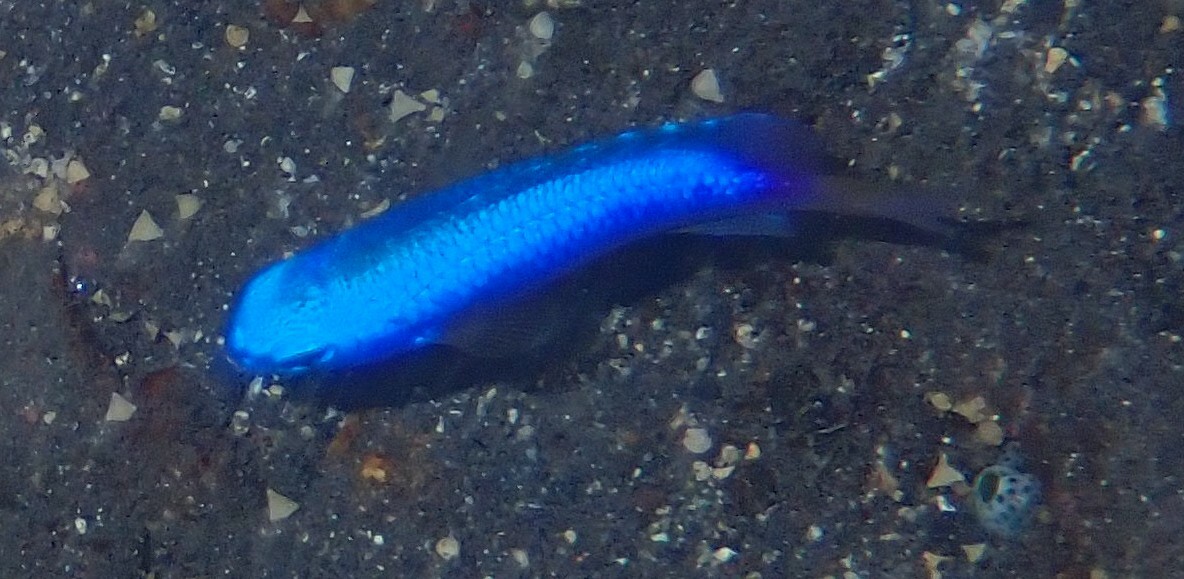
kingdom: Animalia
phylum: Chordata
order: Perciformes
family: Pomacentridae
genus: Pomacentrus
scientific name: Pomacentrus coelestis
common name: Neon damsel
